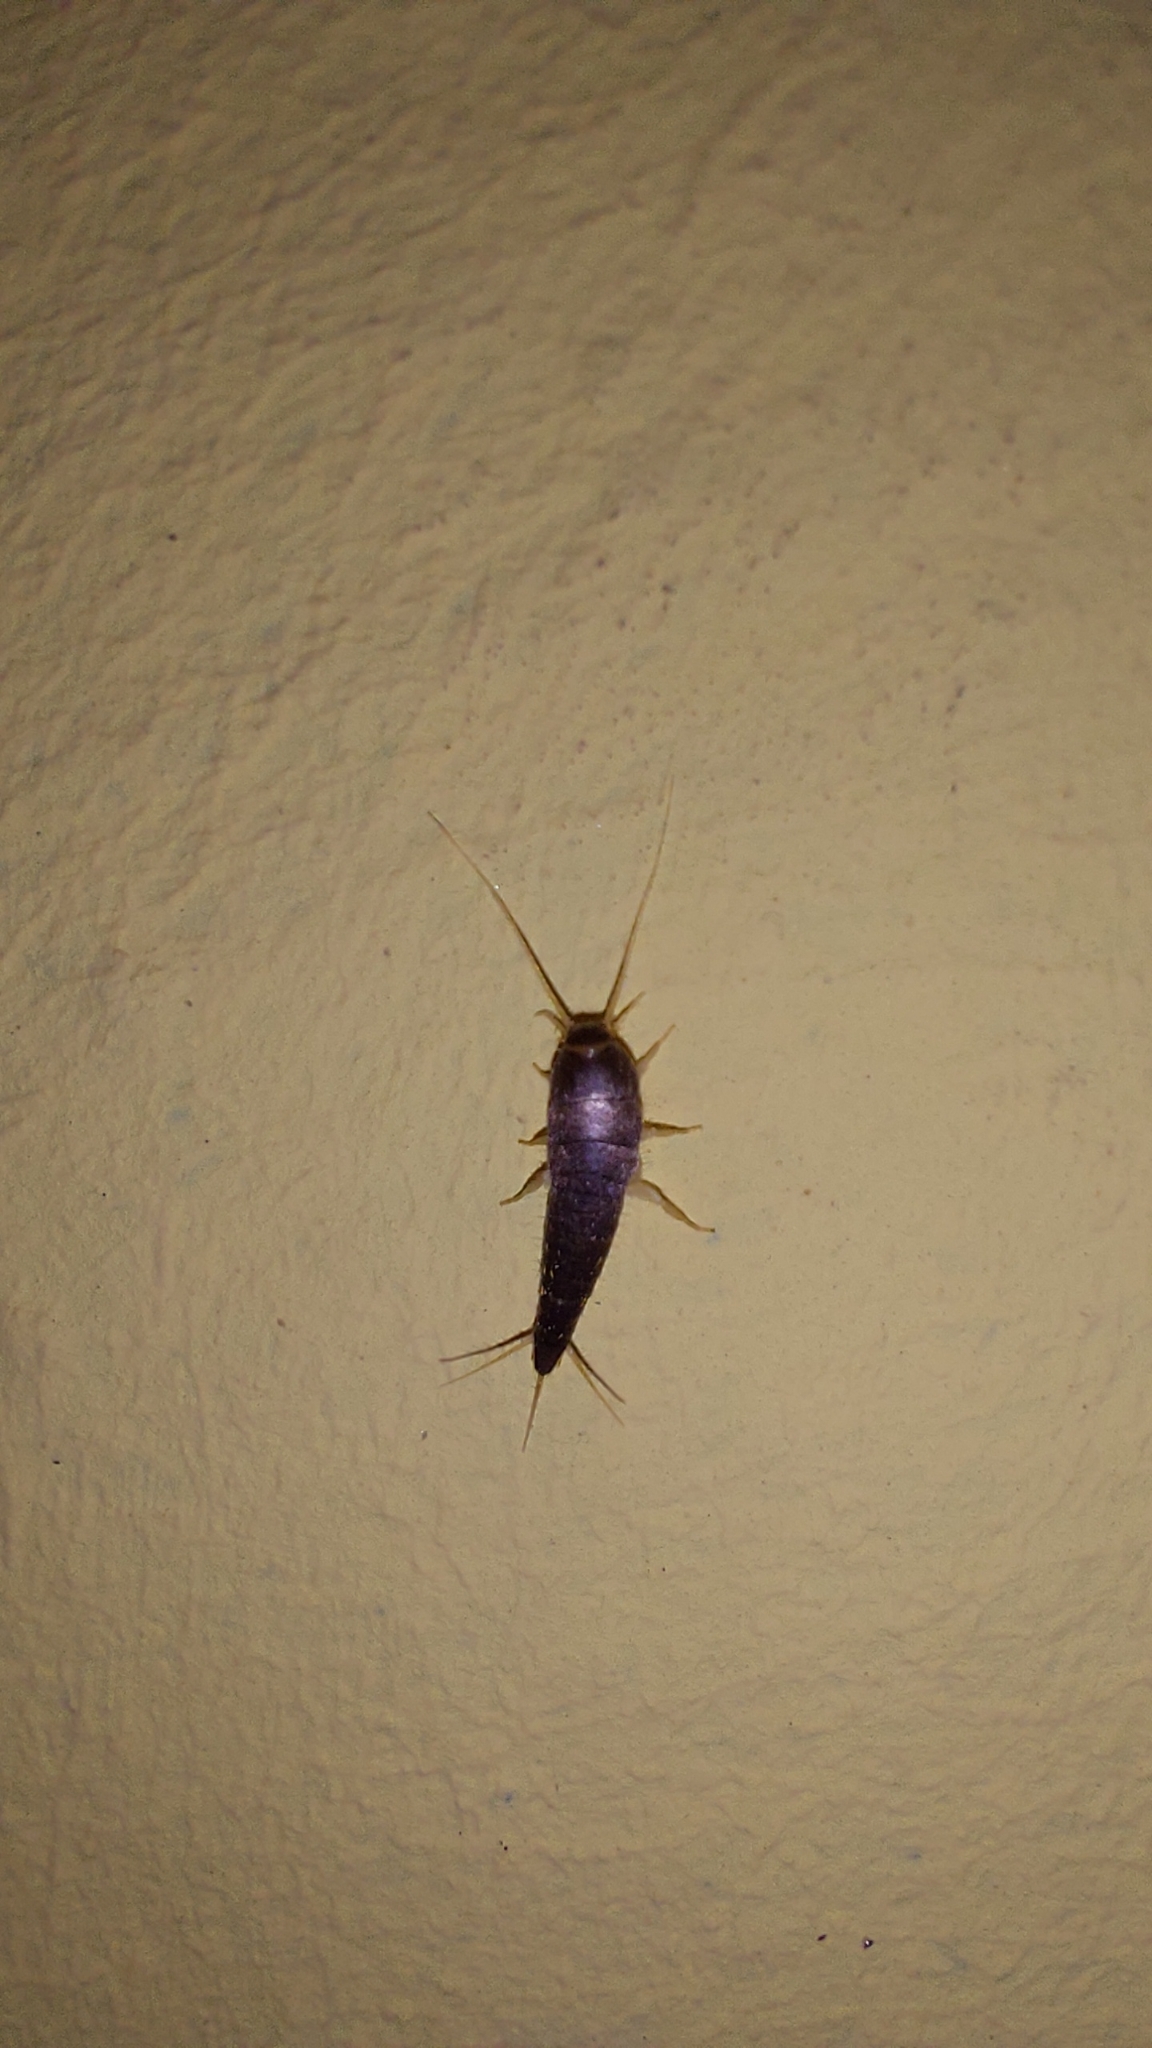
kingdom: Animalia
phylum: Arthropoda
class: Insecta
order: Zygentoma
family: Lepismatidae
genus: Lepisma
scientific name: Lepisma saccharinum
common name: Silverfish
